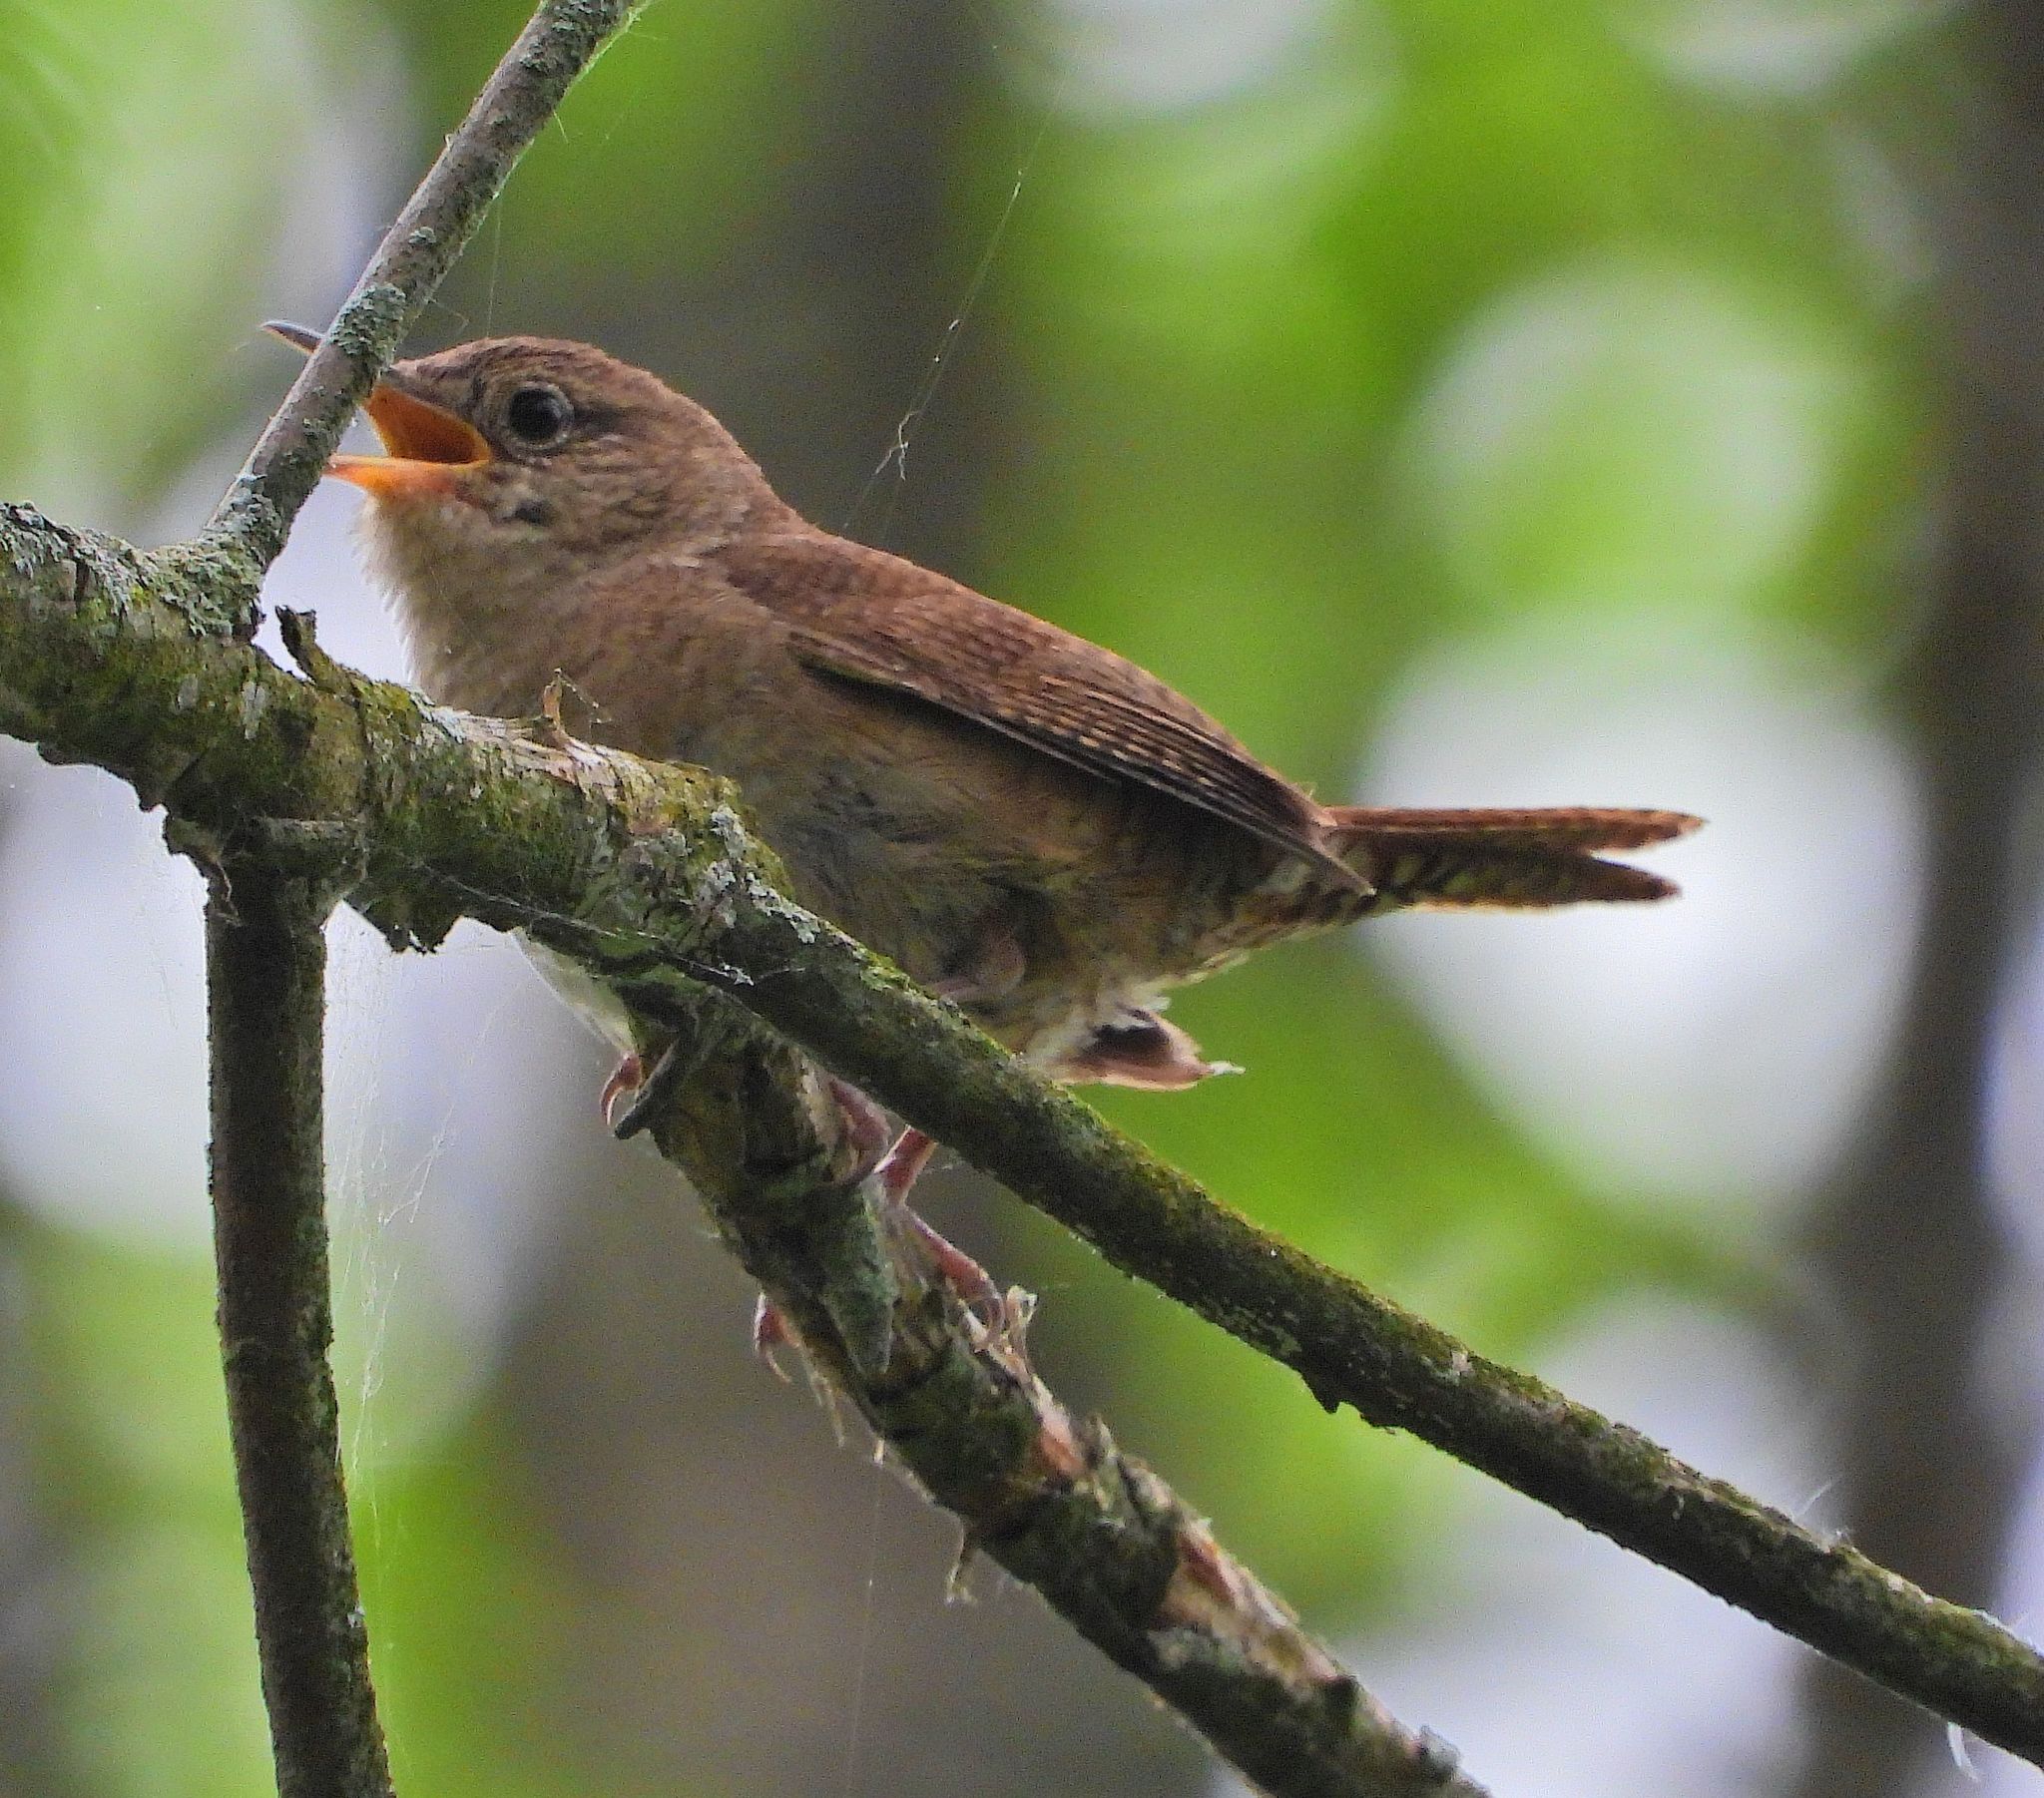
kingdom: Animalia
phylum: Chordata
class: Aves
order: Passeriformes
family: Troglodytidae
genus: Troglodytes
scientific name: Troglodytes aedon
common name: House wren
